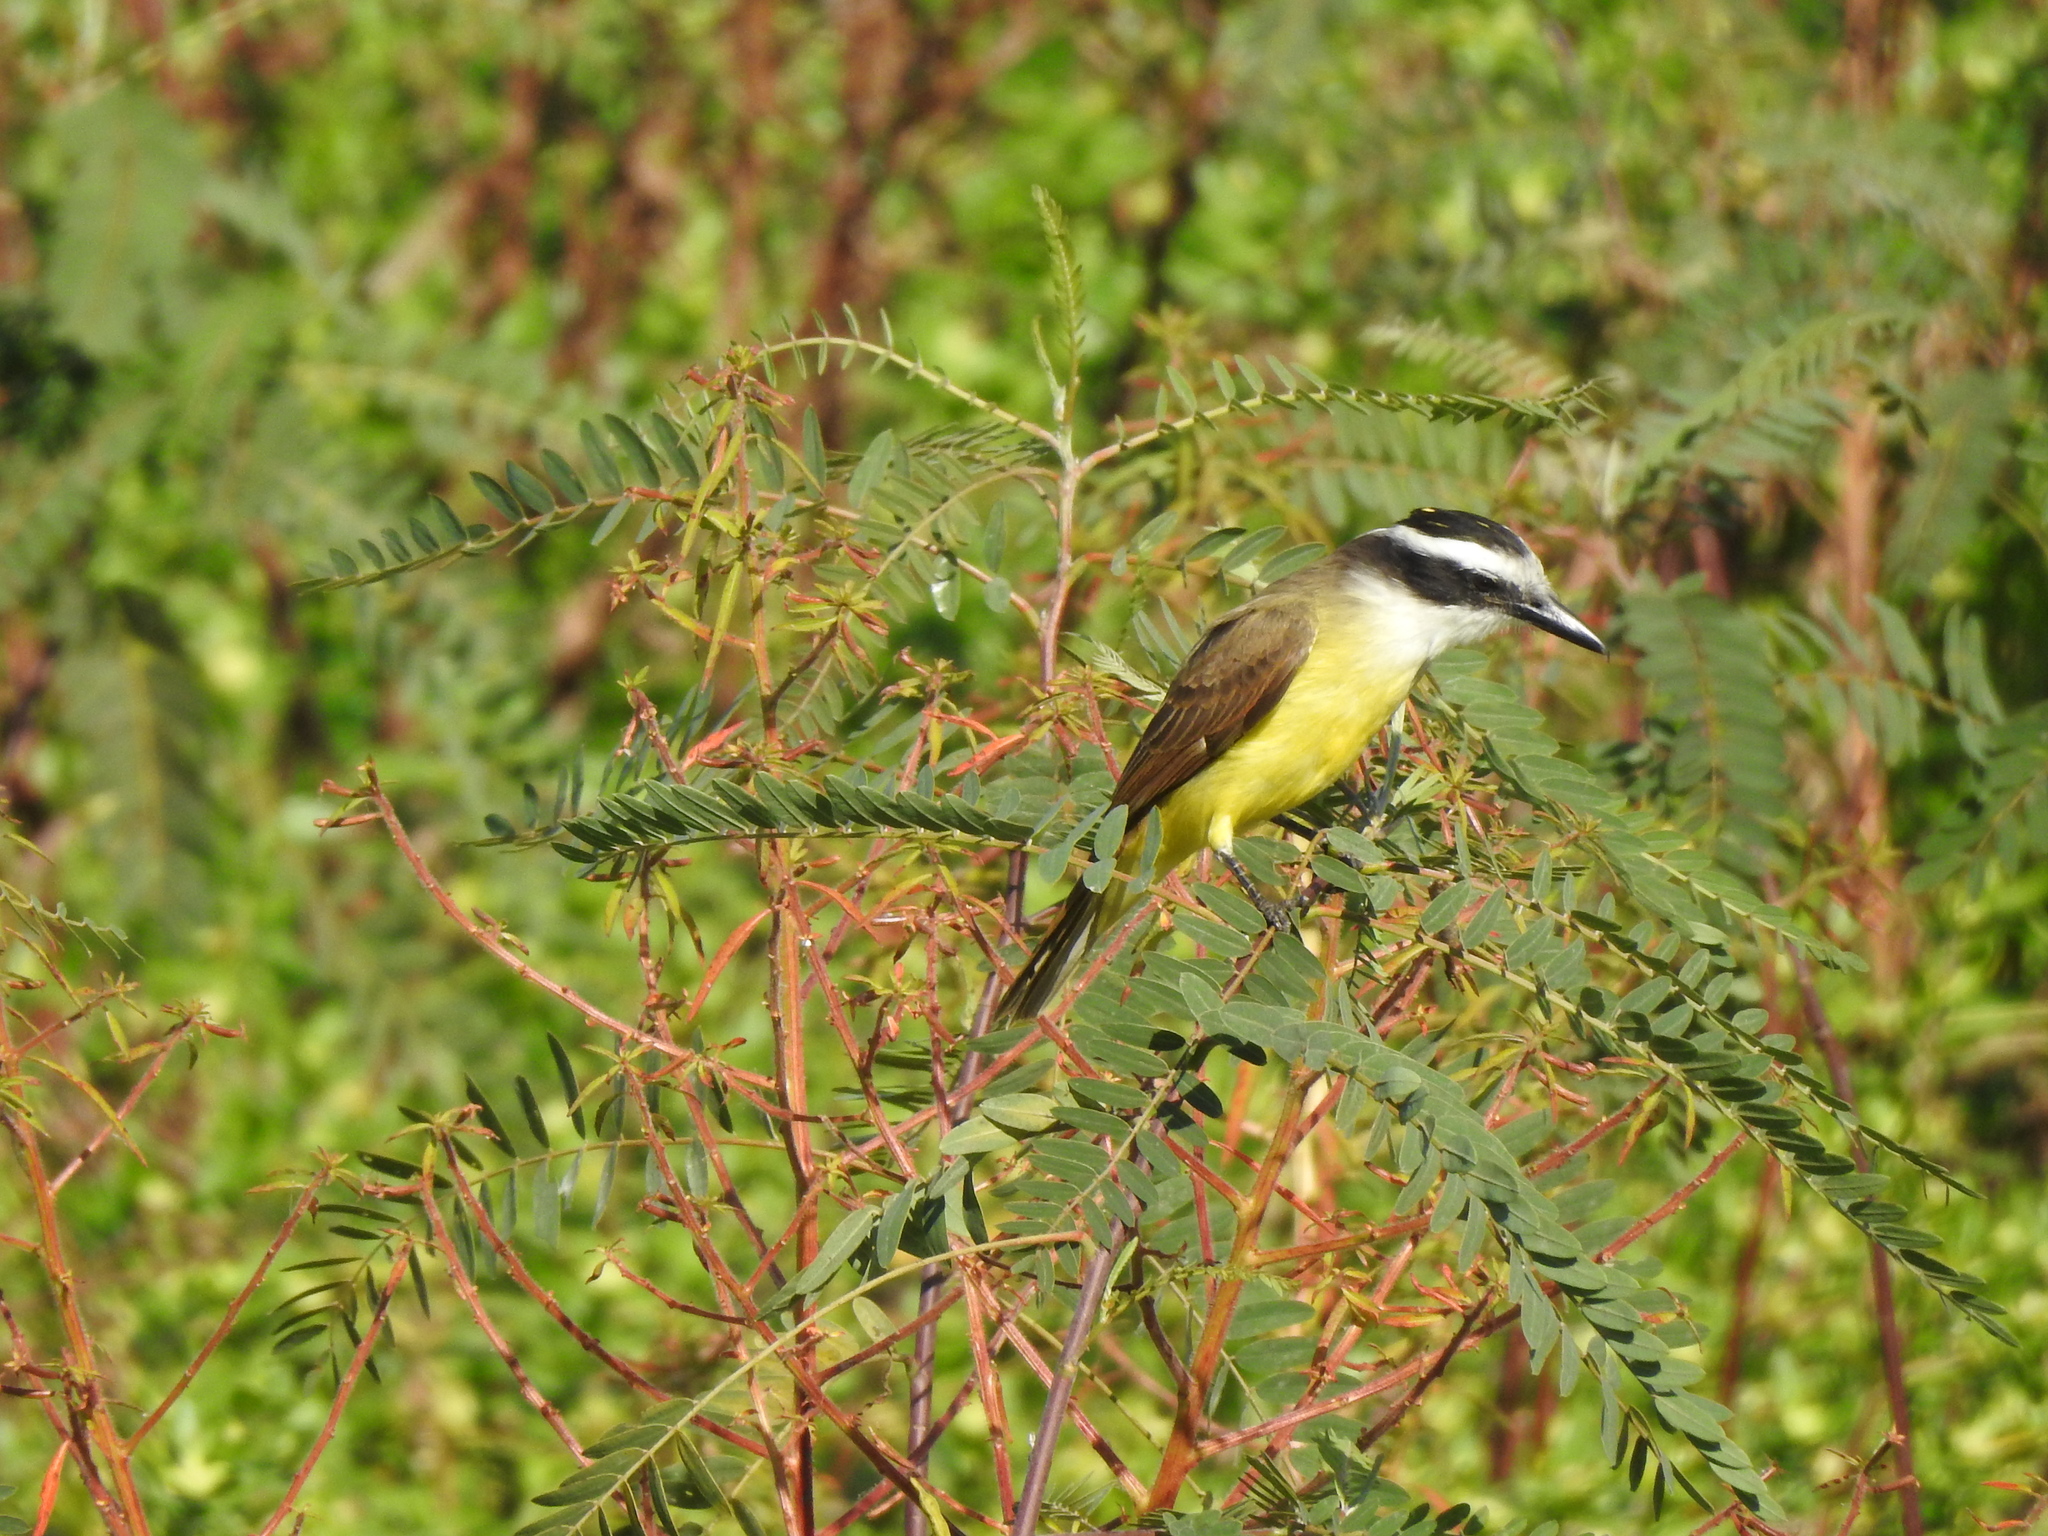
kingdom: Animalia
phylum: Chordata
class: Aves
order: Passeriformes
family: Tyrannidae
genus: Pitangus
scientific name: Pitangus sulphuratus
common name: Great kiskadee
